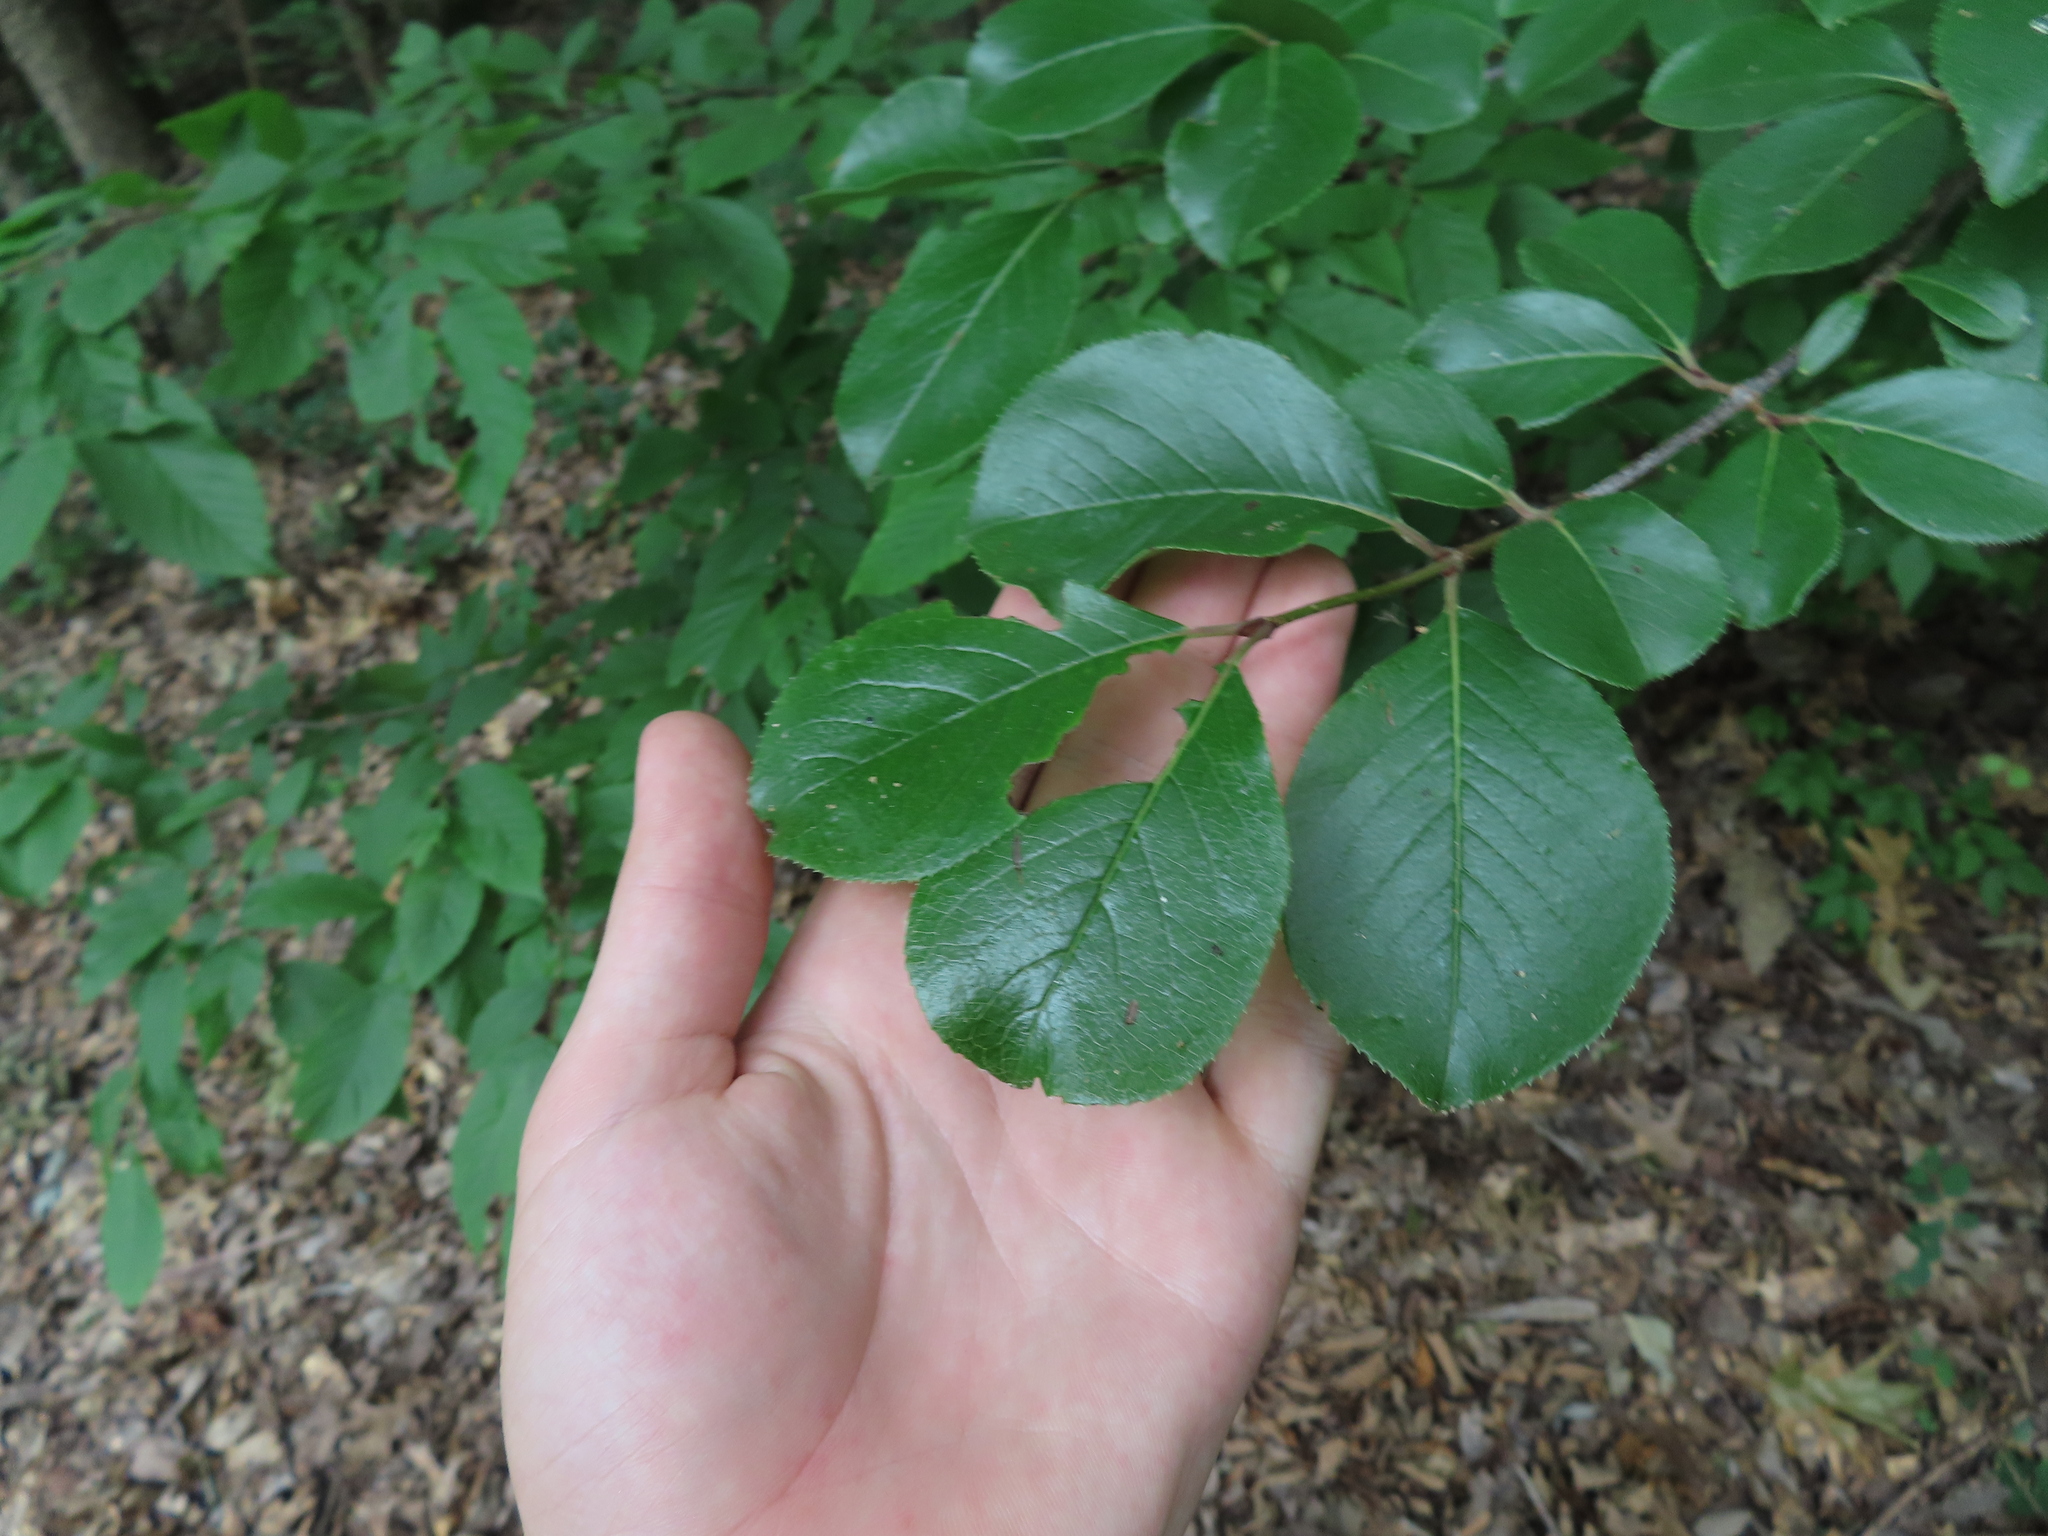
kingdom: Plantae
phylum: Tracheophyta
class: Magnoliopsida
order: Dipsacales
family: Viburnaceae
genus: Viburnum
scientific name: Viburnum rufidulum
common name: Blue haw
